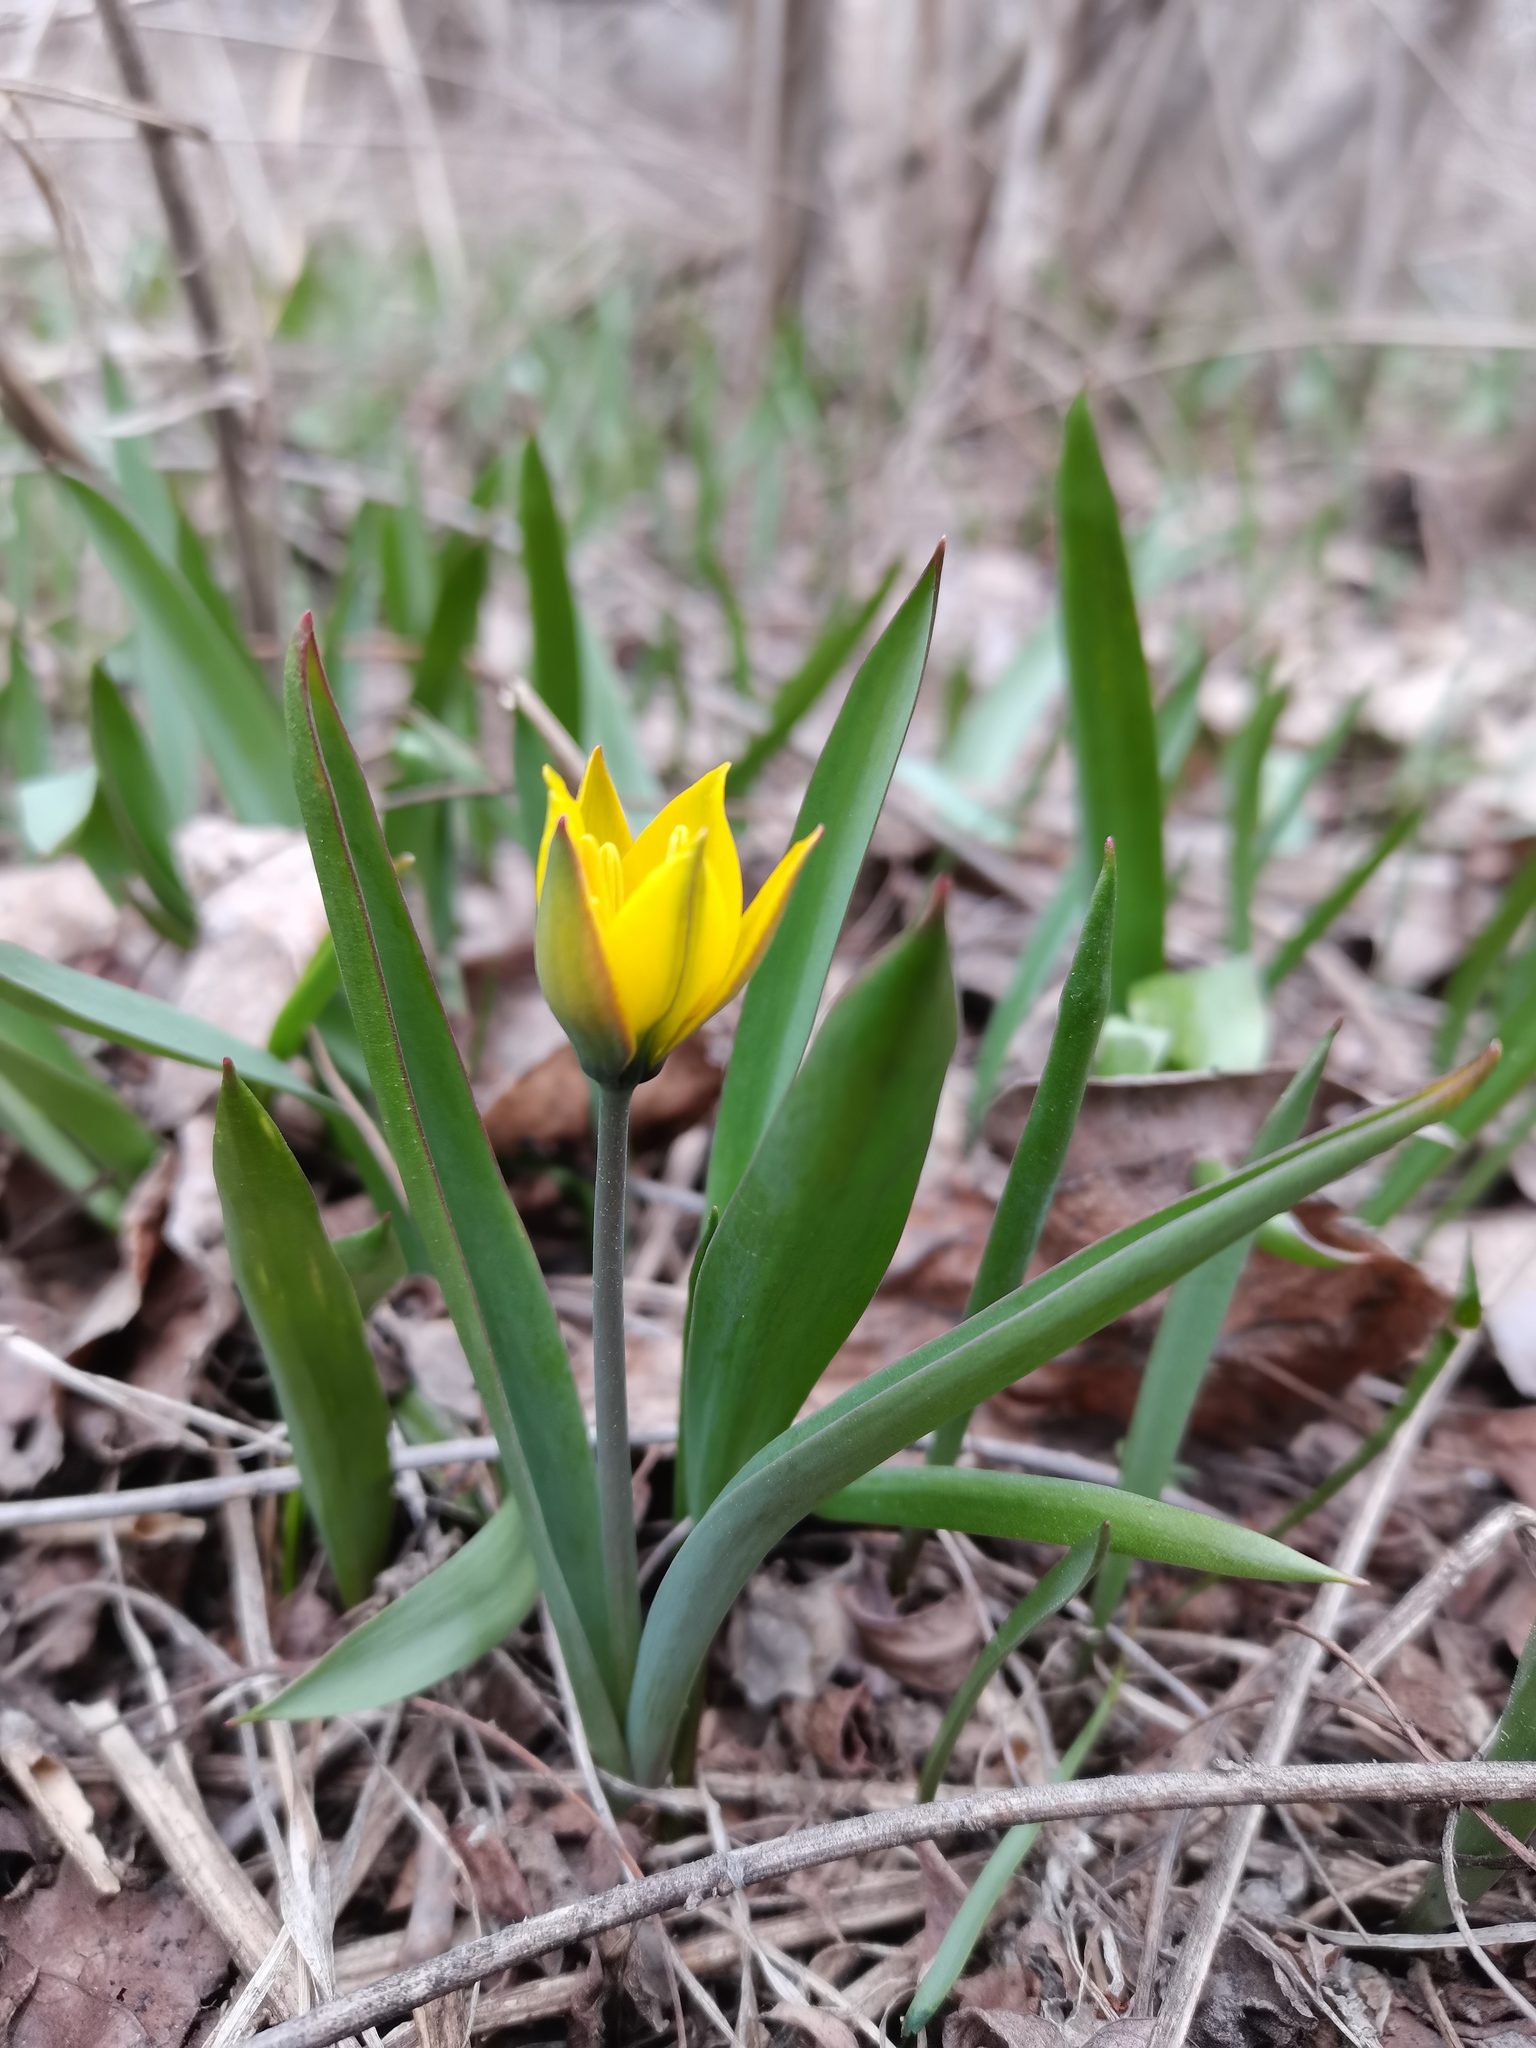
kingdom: Plantae
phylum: Tracheophyta
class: Liliopsida
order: Liliales
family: Liliaceae
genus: Tulipa
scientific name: Tulipa sylvestris
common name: Wild tulip
